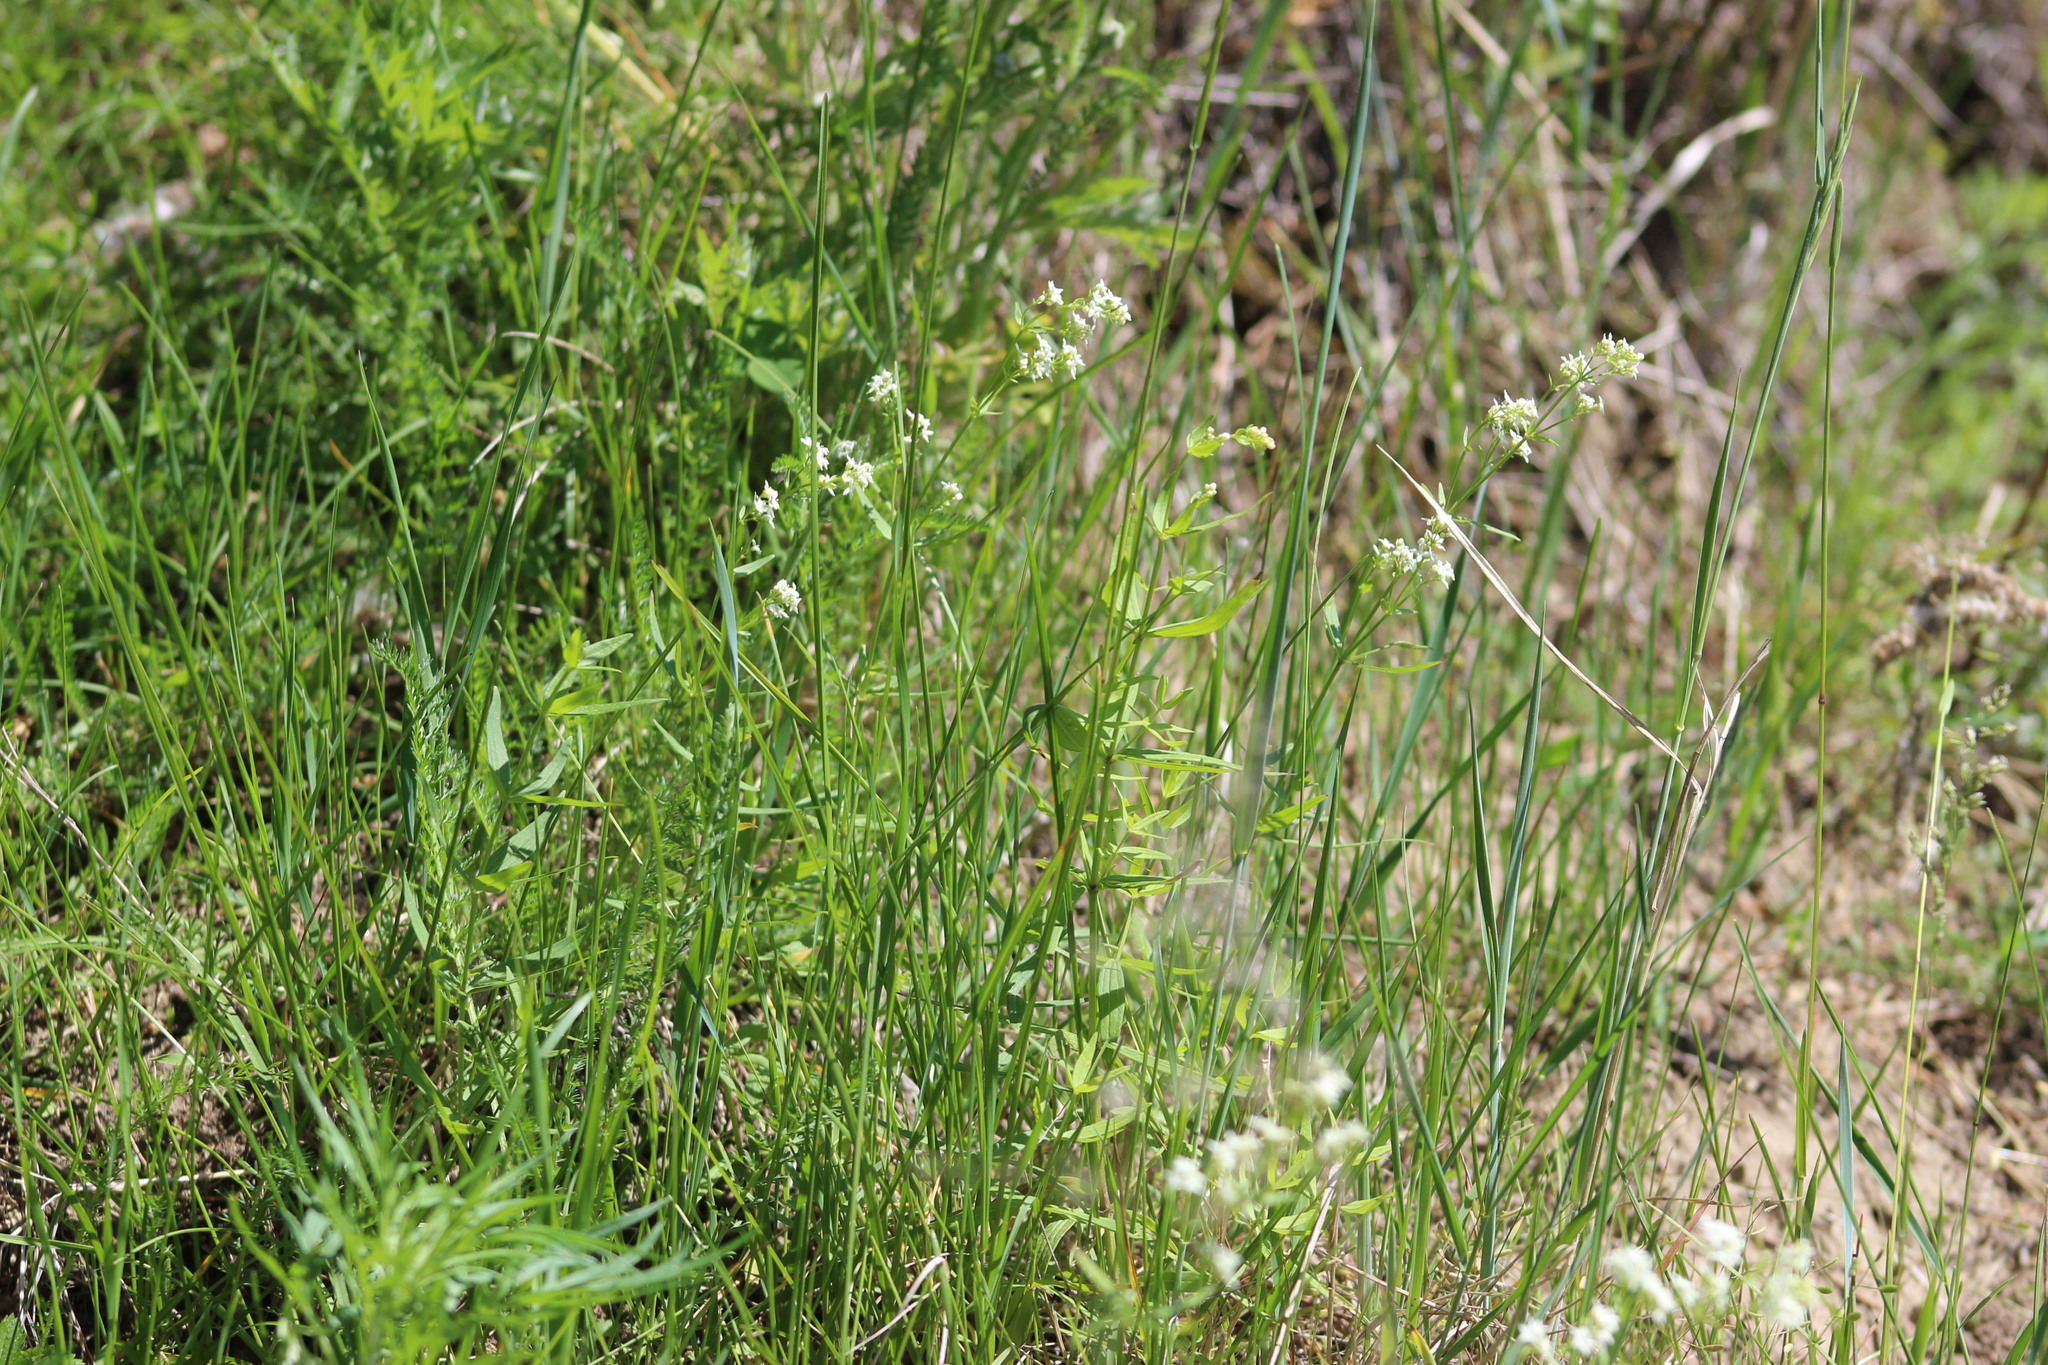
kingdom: Plantae
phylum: Tracheophyta
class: Magnoliopsida
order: Gentianales
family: Rubiaceae
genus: Galium
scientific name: Galium boreale
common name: Northern bedstraw
